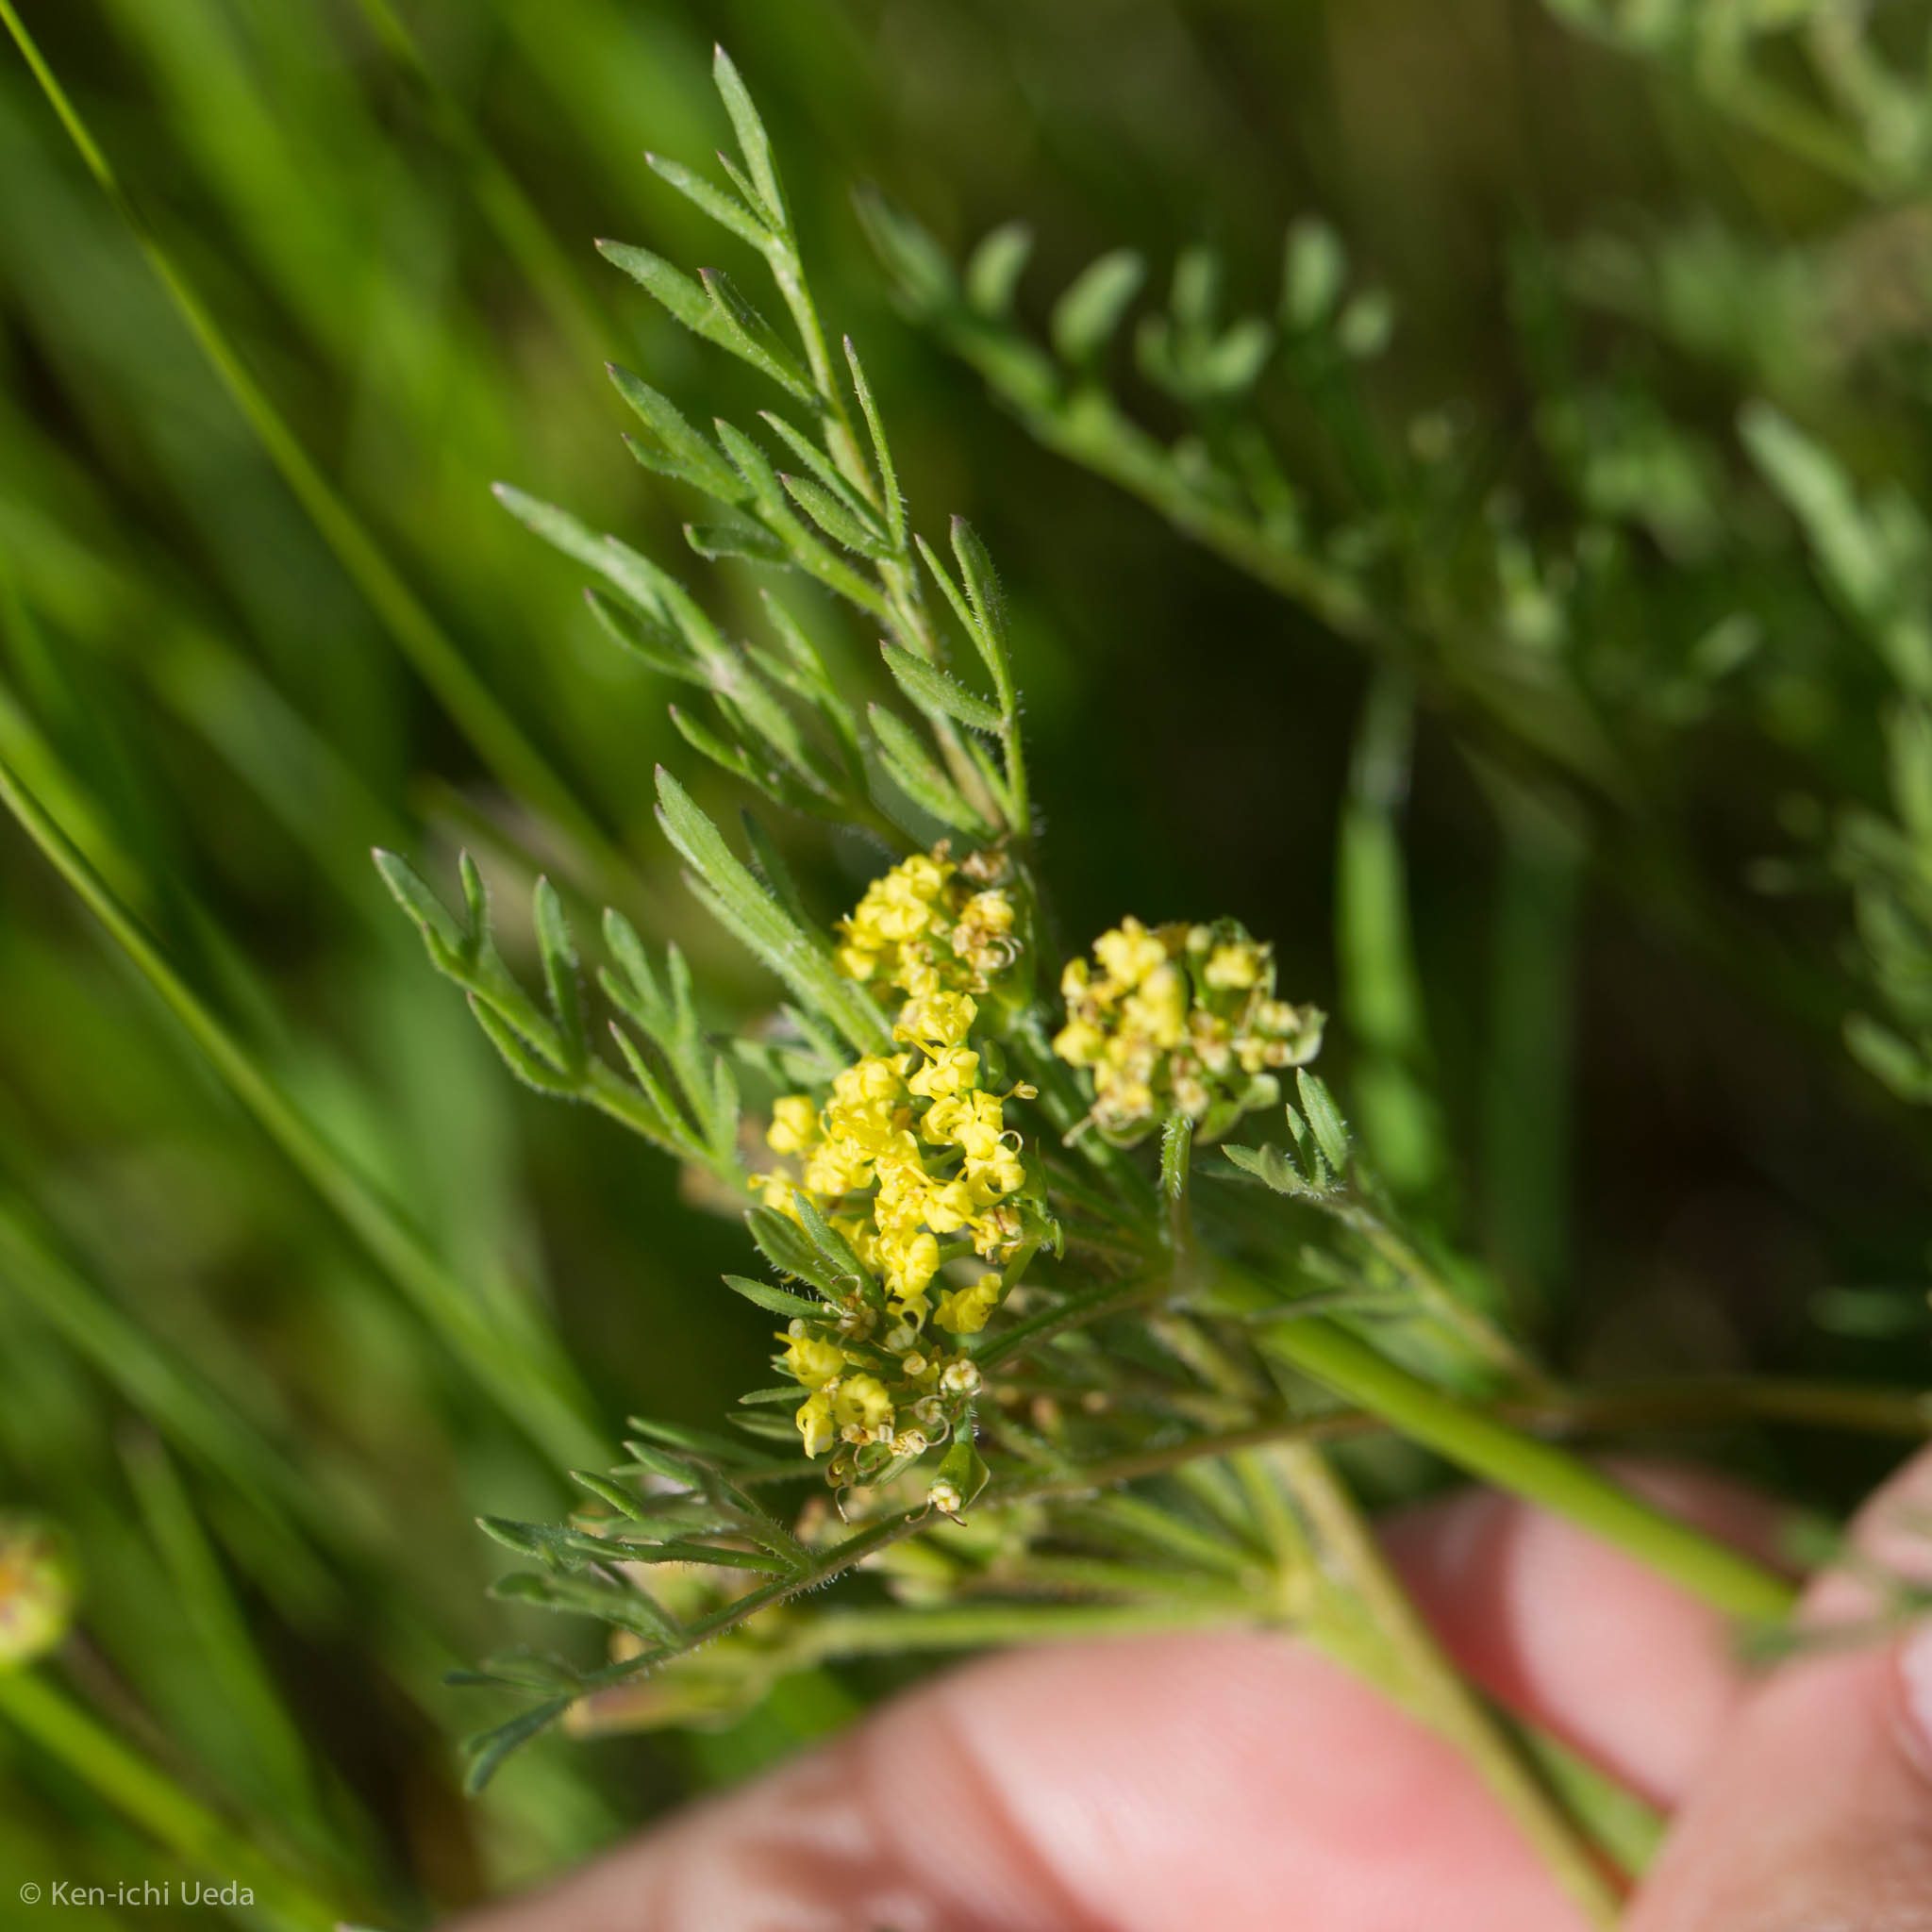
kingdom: Plantae
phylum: Tracheophyta
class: Magnoliopsida
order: Apiales
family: Apiaceae
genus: Lomatium
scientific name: Lomatium utriculatum
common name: Fine-leaf desert-parsley
